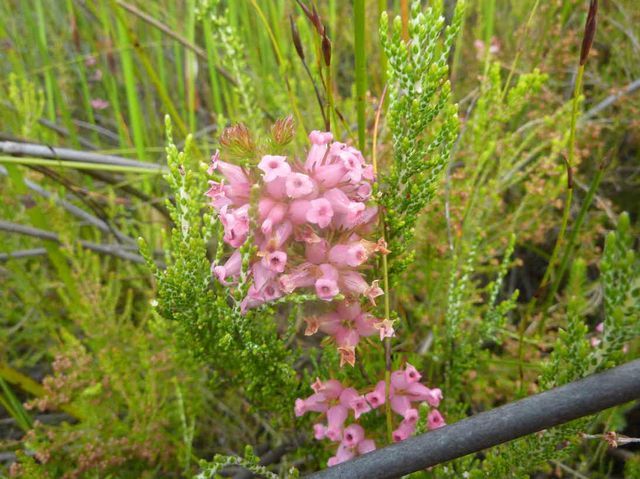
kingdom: Plantae
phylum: Tracheophyta
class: Magnoliopsida
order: Ericales
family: Ericaceae
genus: Erica
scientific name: Erica daphniflora
